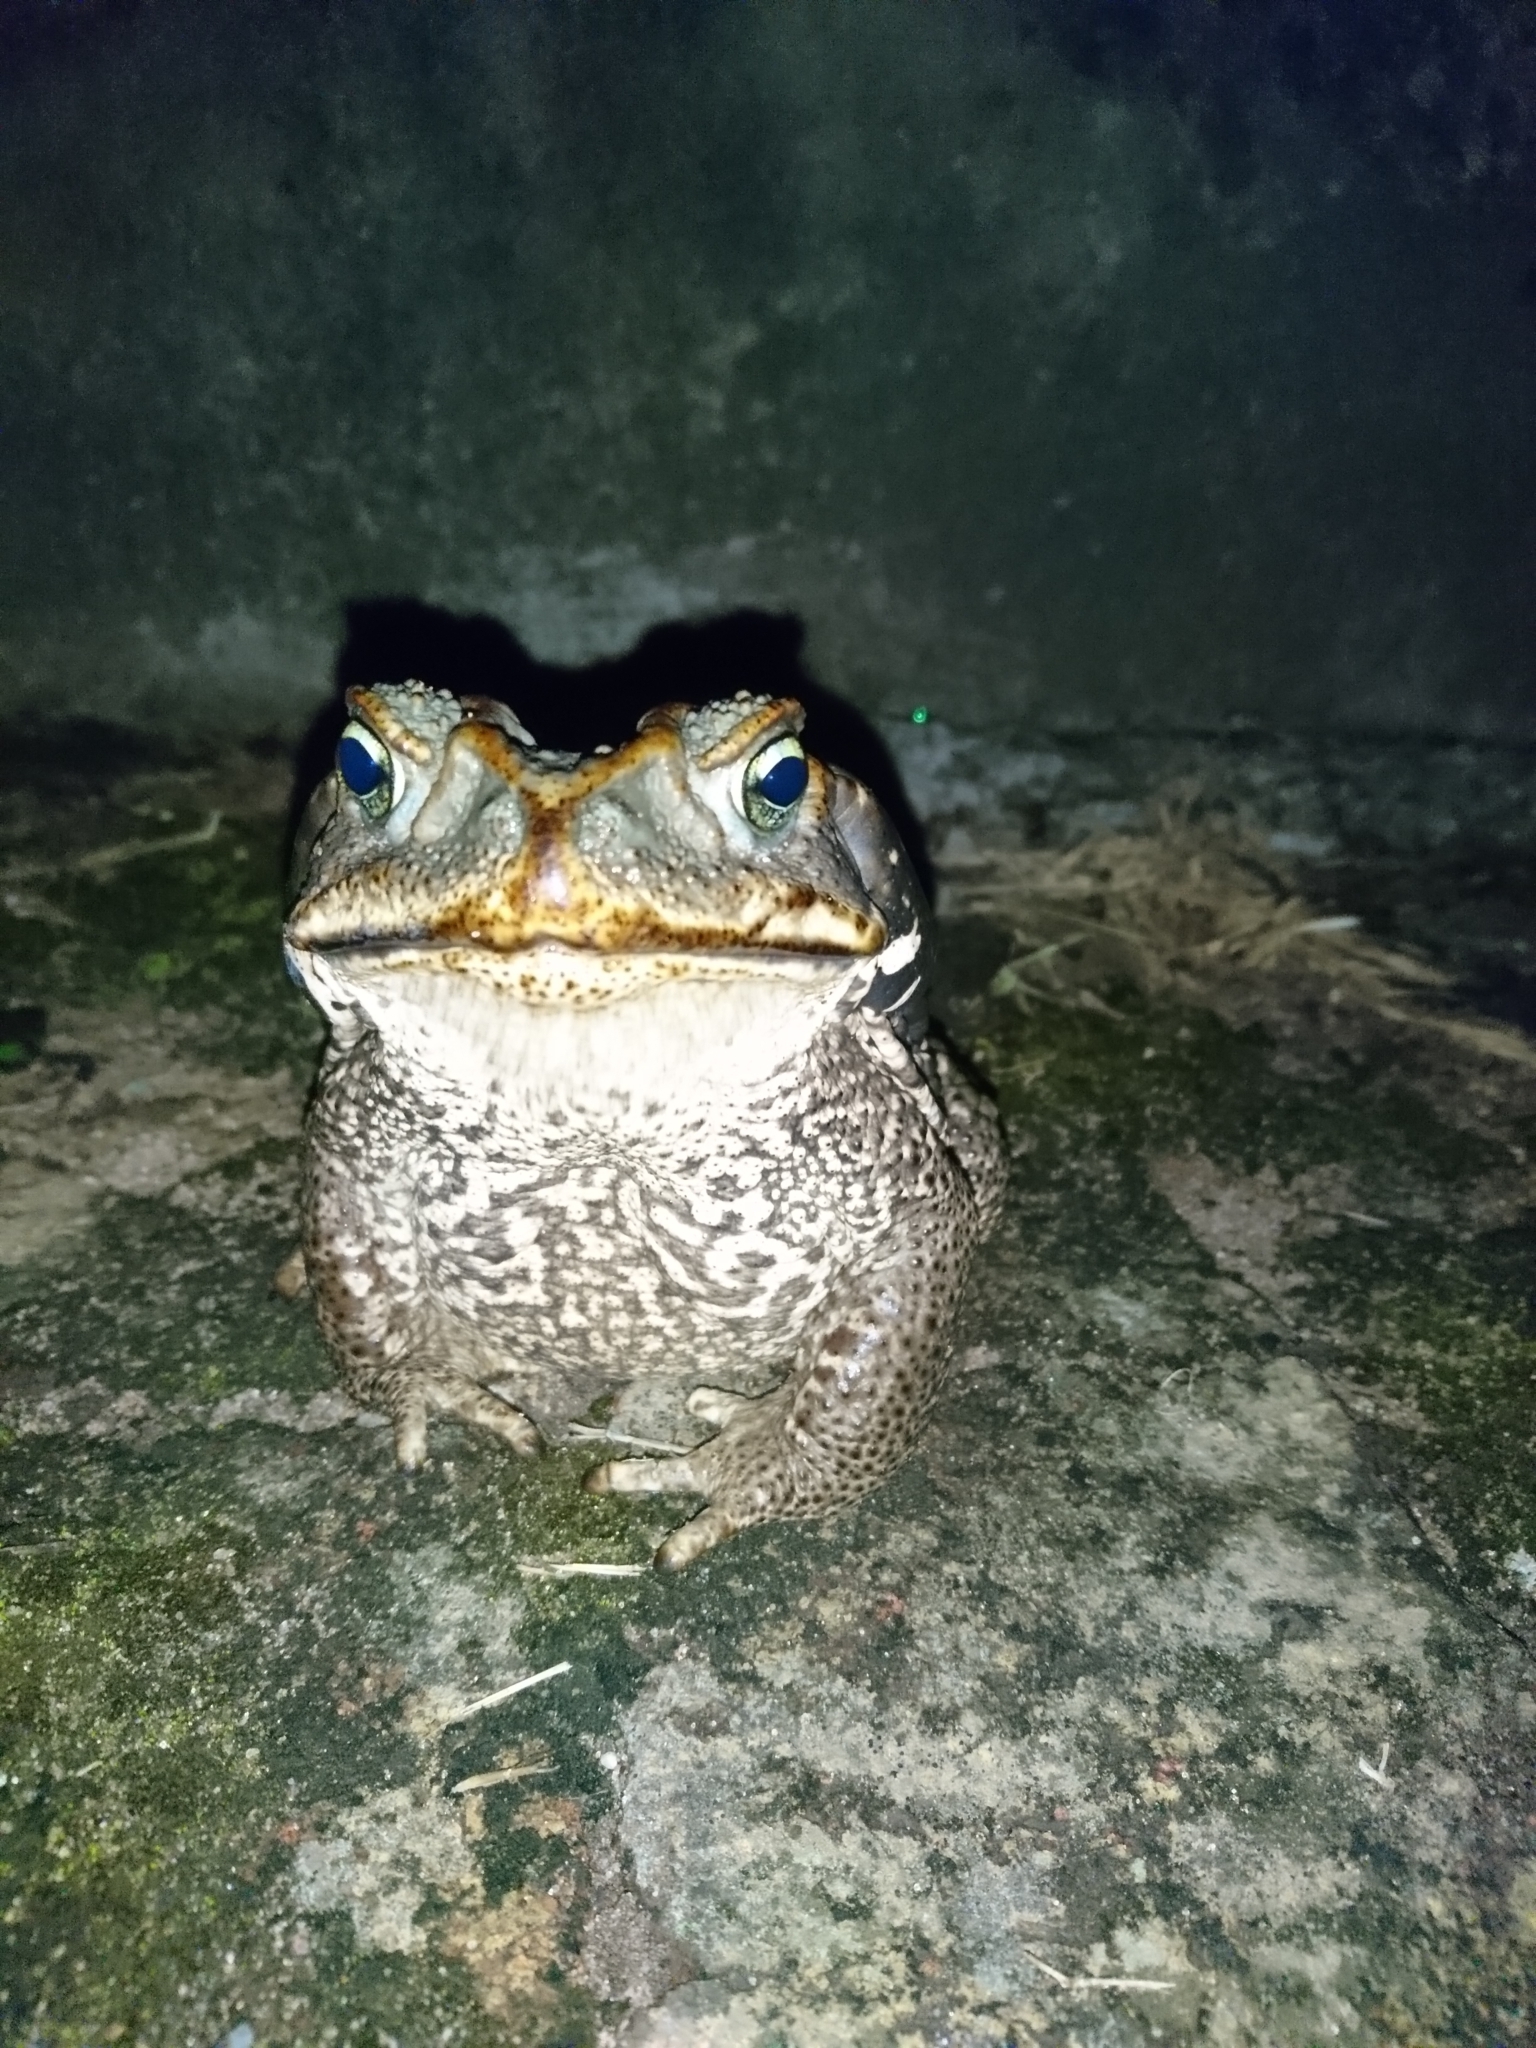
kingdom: Animalia
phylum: Chordata
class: Amphibia
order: Anura
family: Bufonidae
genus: Rhinella
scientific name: Rhinella diptycha
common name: Cope's toad
